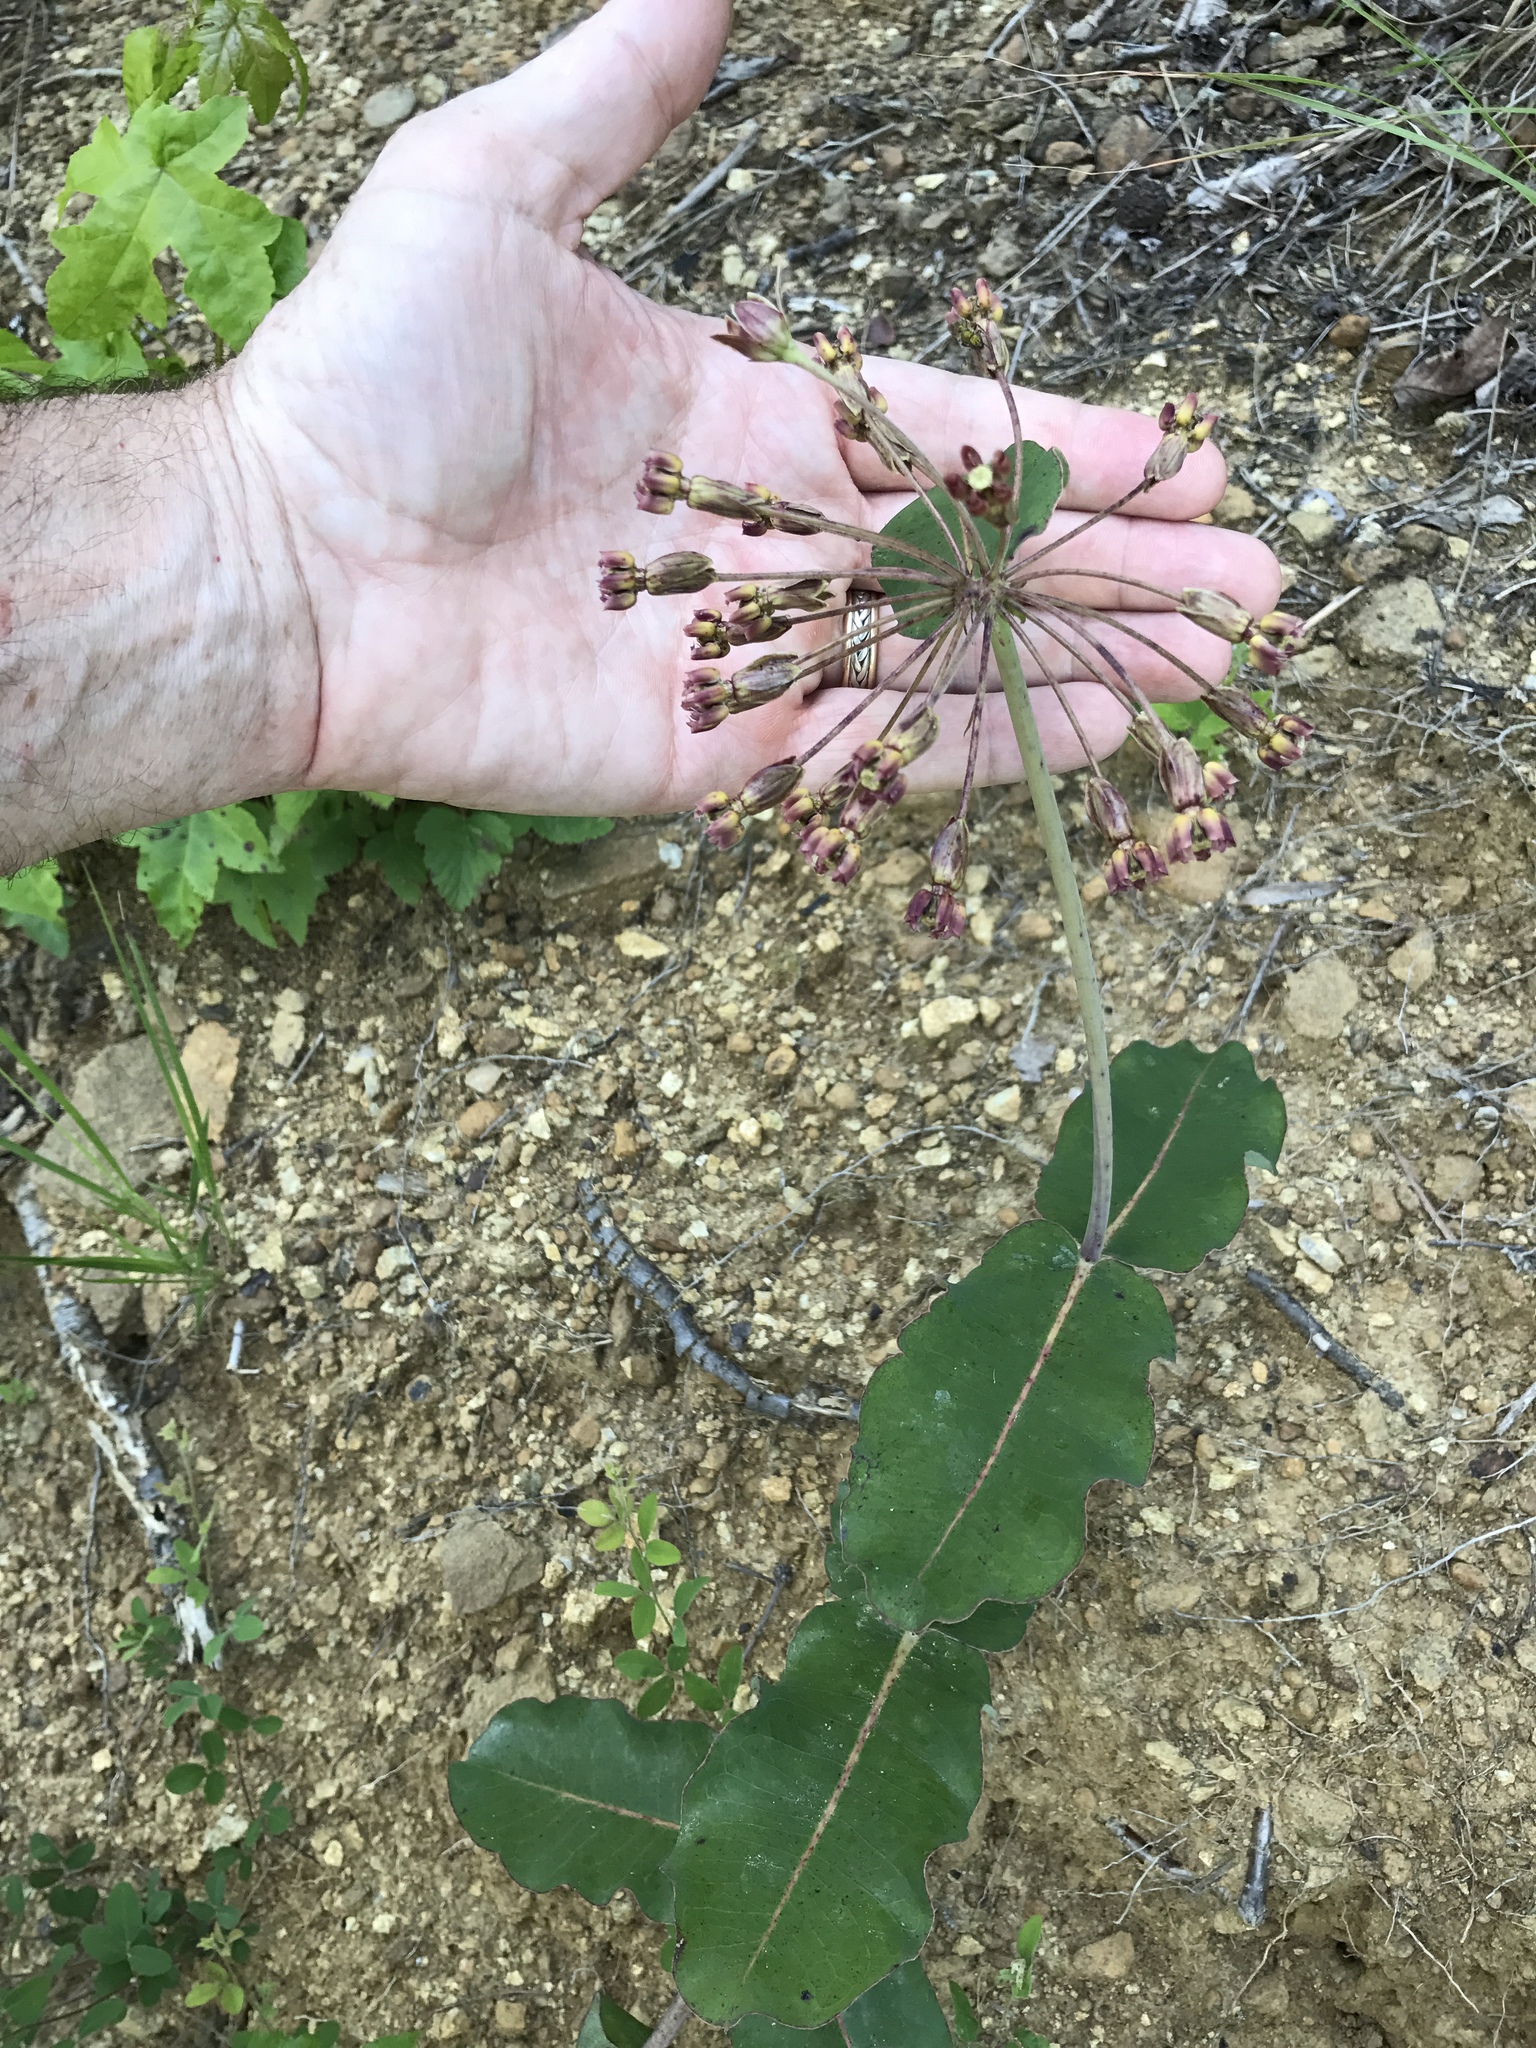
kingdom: Plantae
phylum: Tracheophyta
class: Magnoliopsida
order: Gentianales
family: Apocynaceae
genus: Asclepias
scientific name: Asclepias amplexicaulis
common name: Blunt-leaf milkweed
